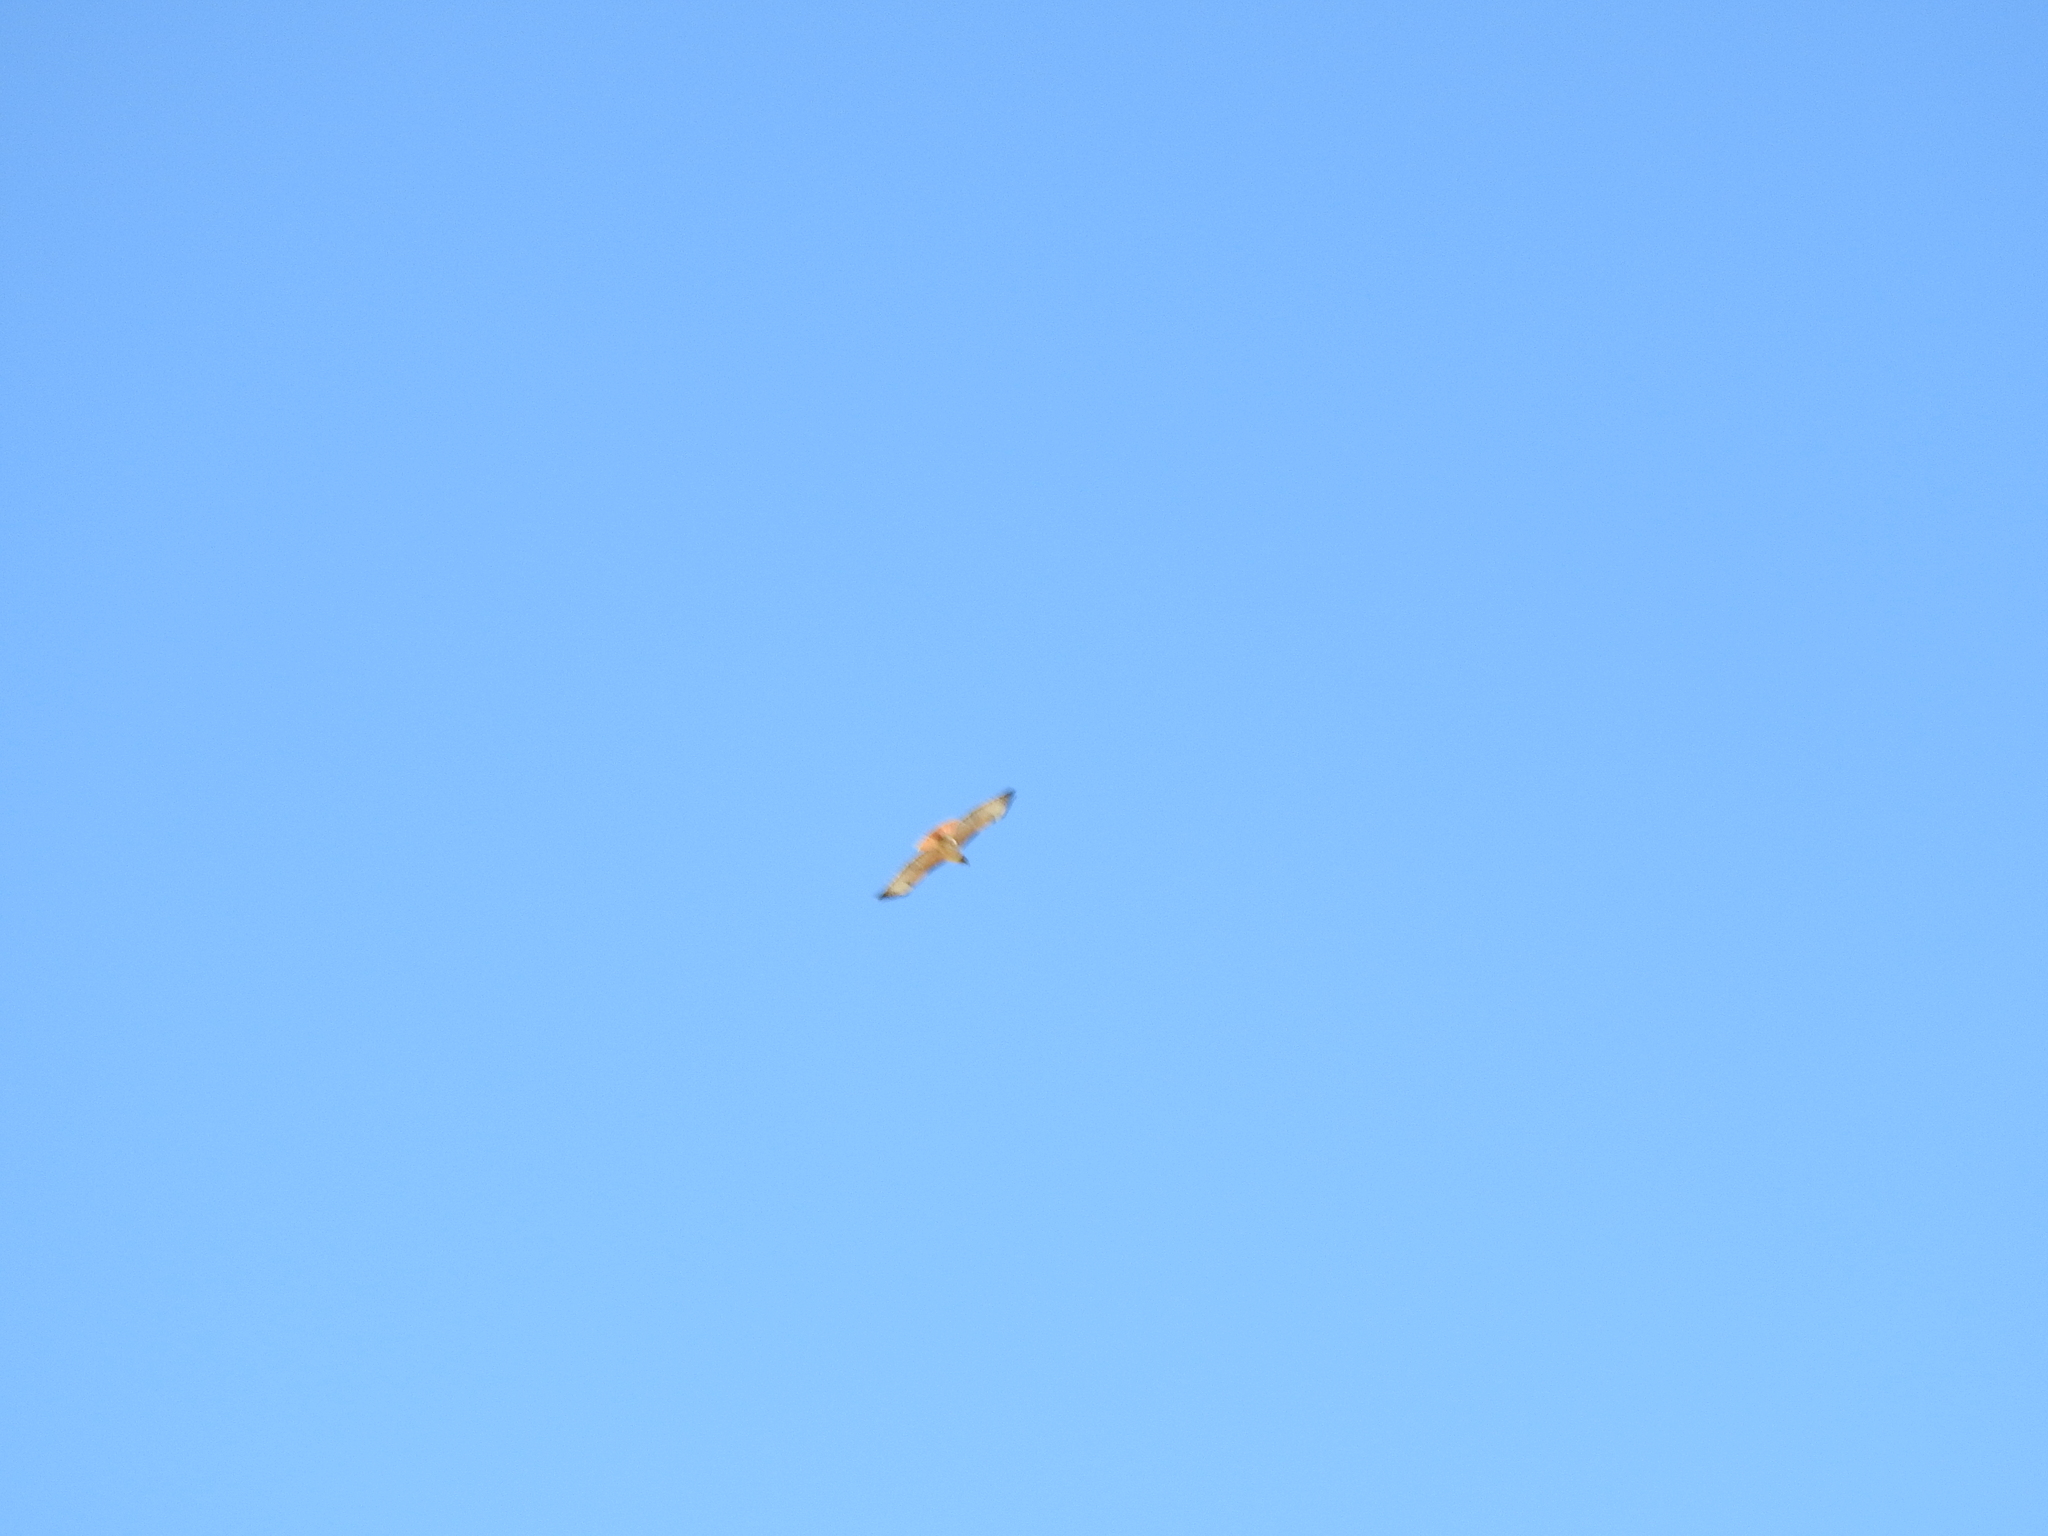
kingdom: Animalia
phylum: Chordata
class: Aves
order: Accipitriformes
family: Accipitridae
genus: Buteo
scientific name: Buteo jamaicensis
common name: Red-tailed hawk
